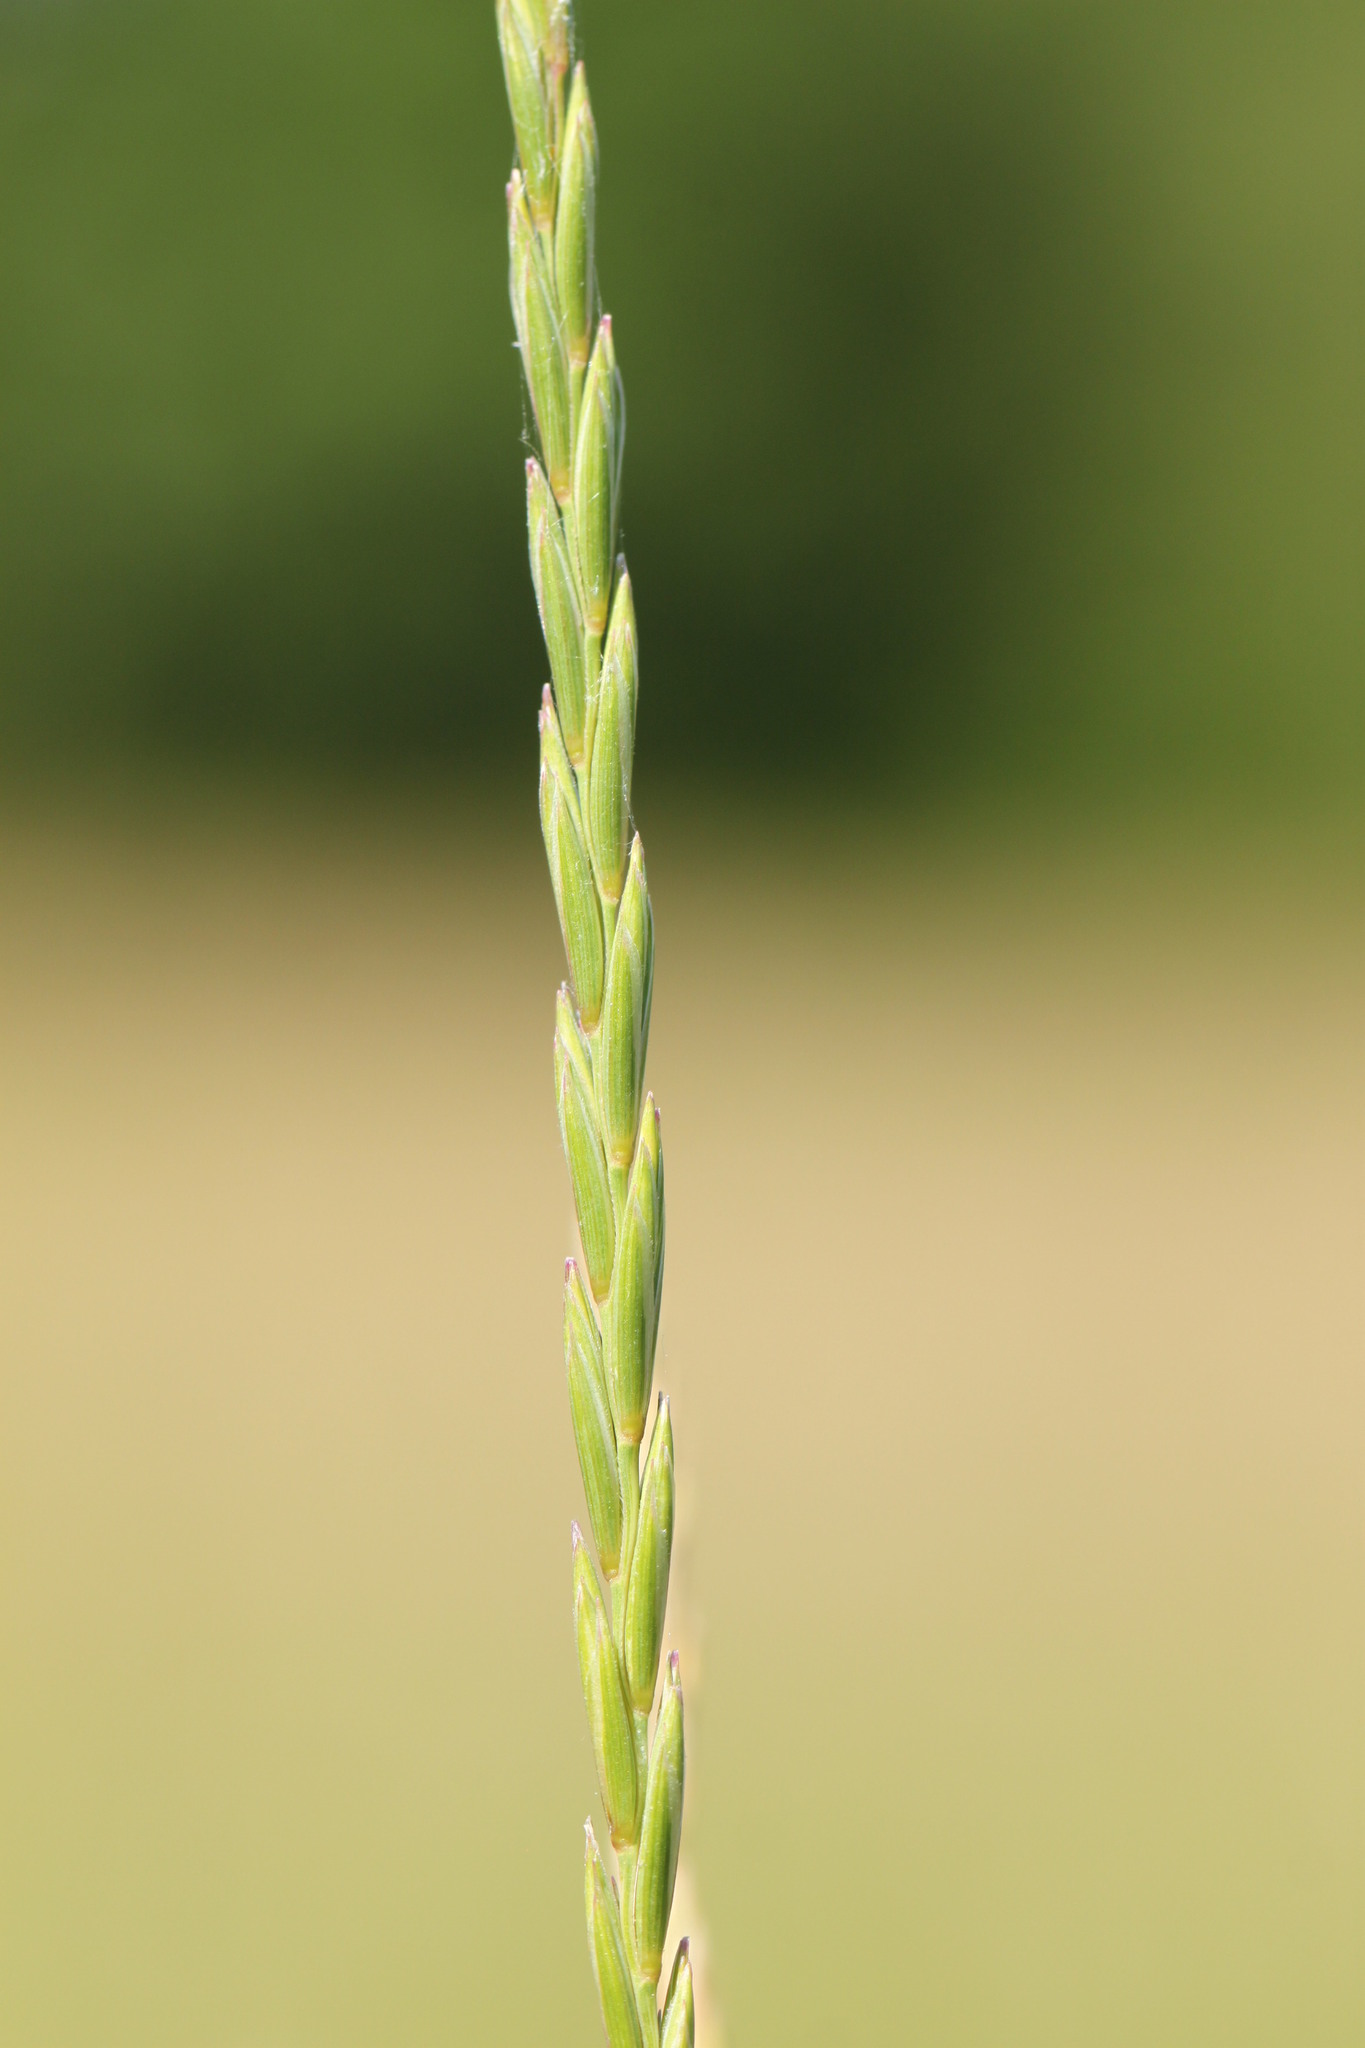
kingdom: Plantae
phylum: Tracheophyta
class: Liliopsida
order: Poales
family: Poaceae
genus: Elymus
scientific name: Elymus repens
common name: Quackgrass
